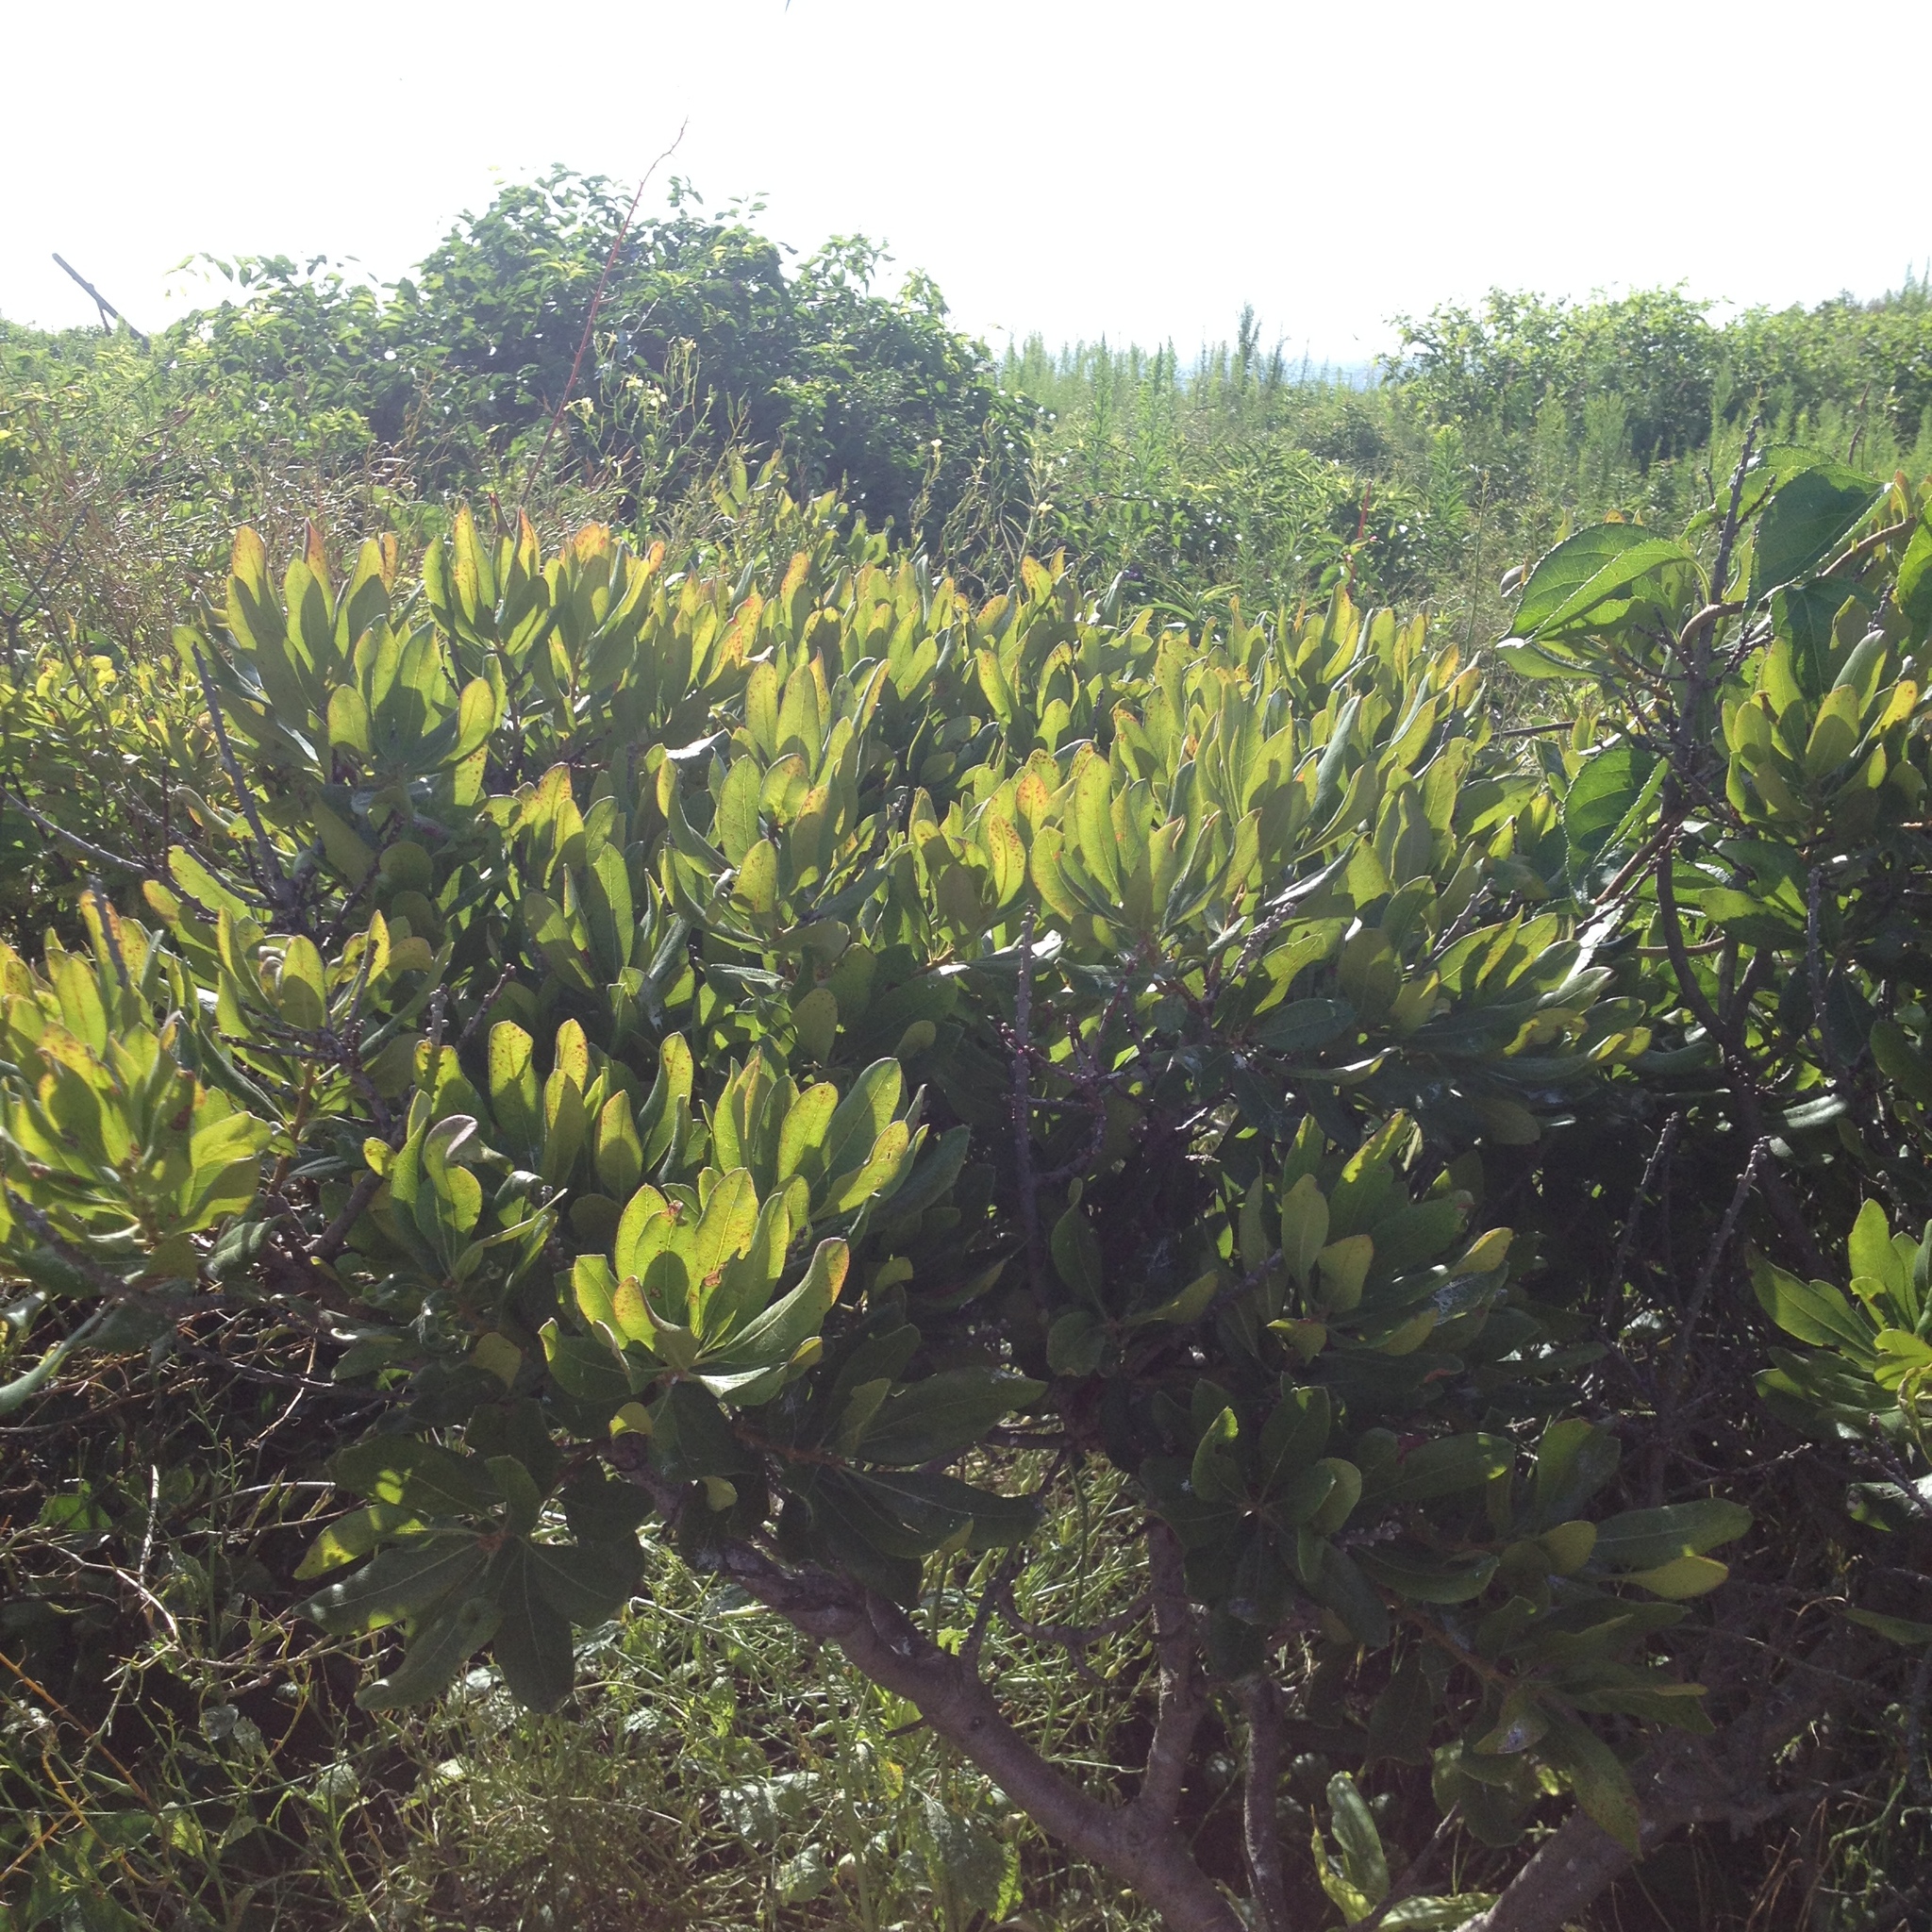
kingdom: Plantae
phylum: Tracheophyta
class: Magnoliopsida
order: Fagales
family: Myricaceae
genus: Morella
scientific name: Morella pensylvanica
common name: Northern bayberry
